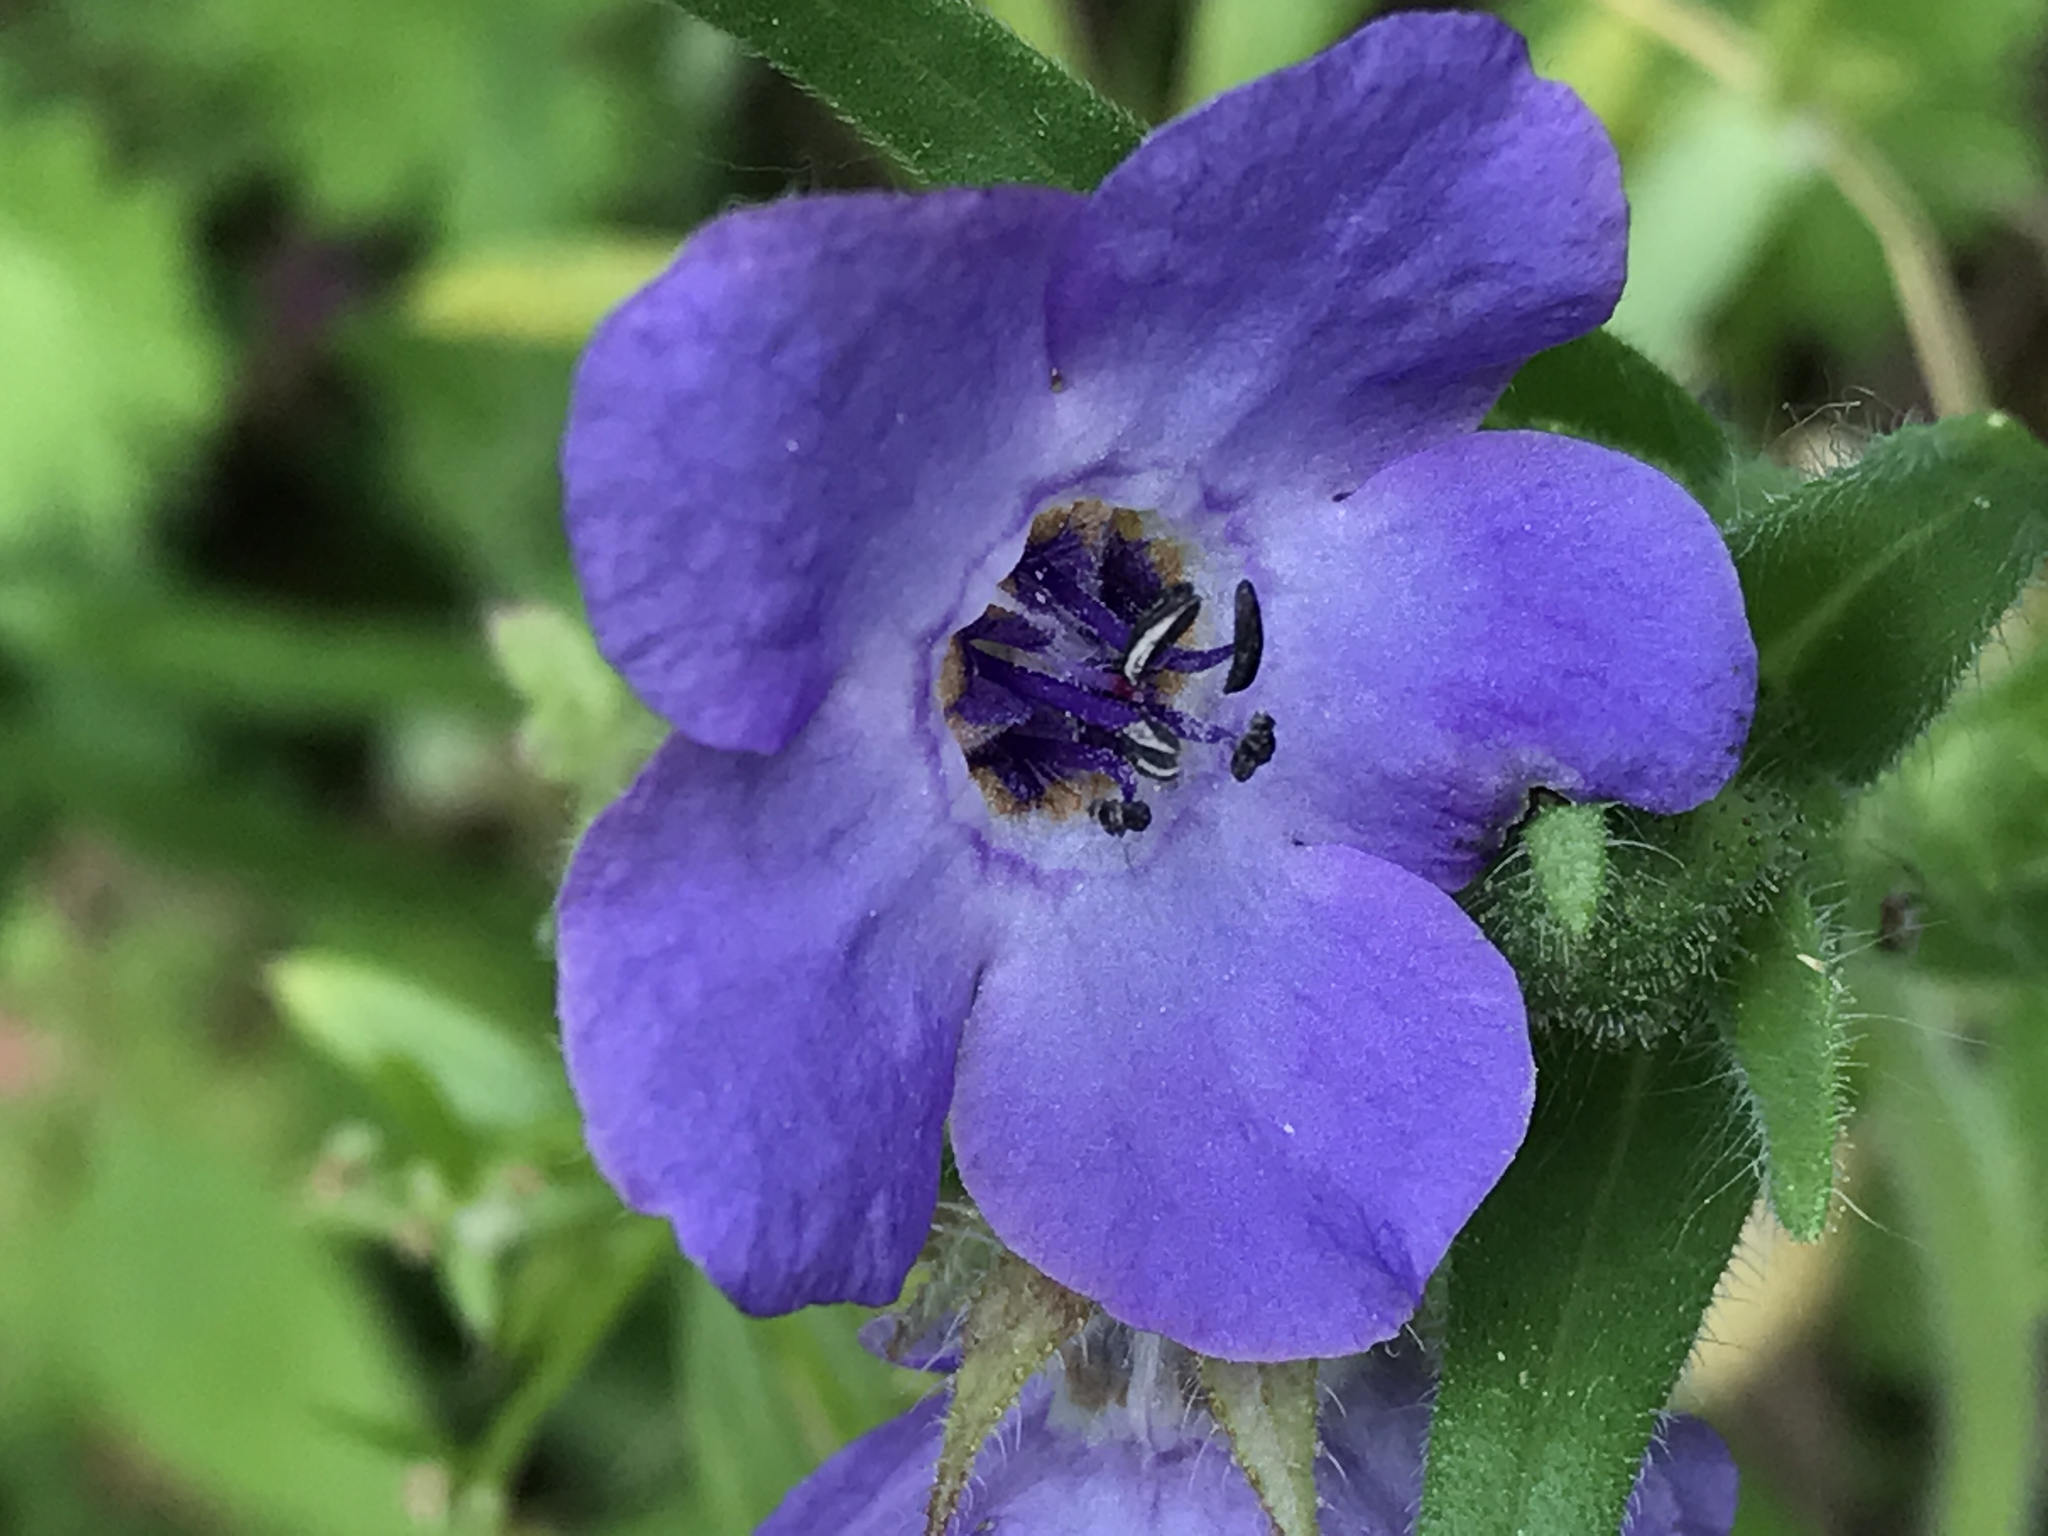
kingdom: Plantae
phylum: Tracheophyta
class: Magnoliopsida
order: Boraginales
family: Hydrophyllaceae
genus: Pholistoma
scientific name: Pholistoma auritum
